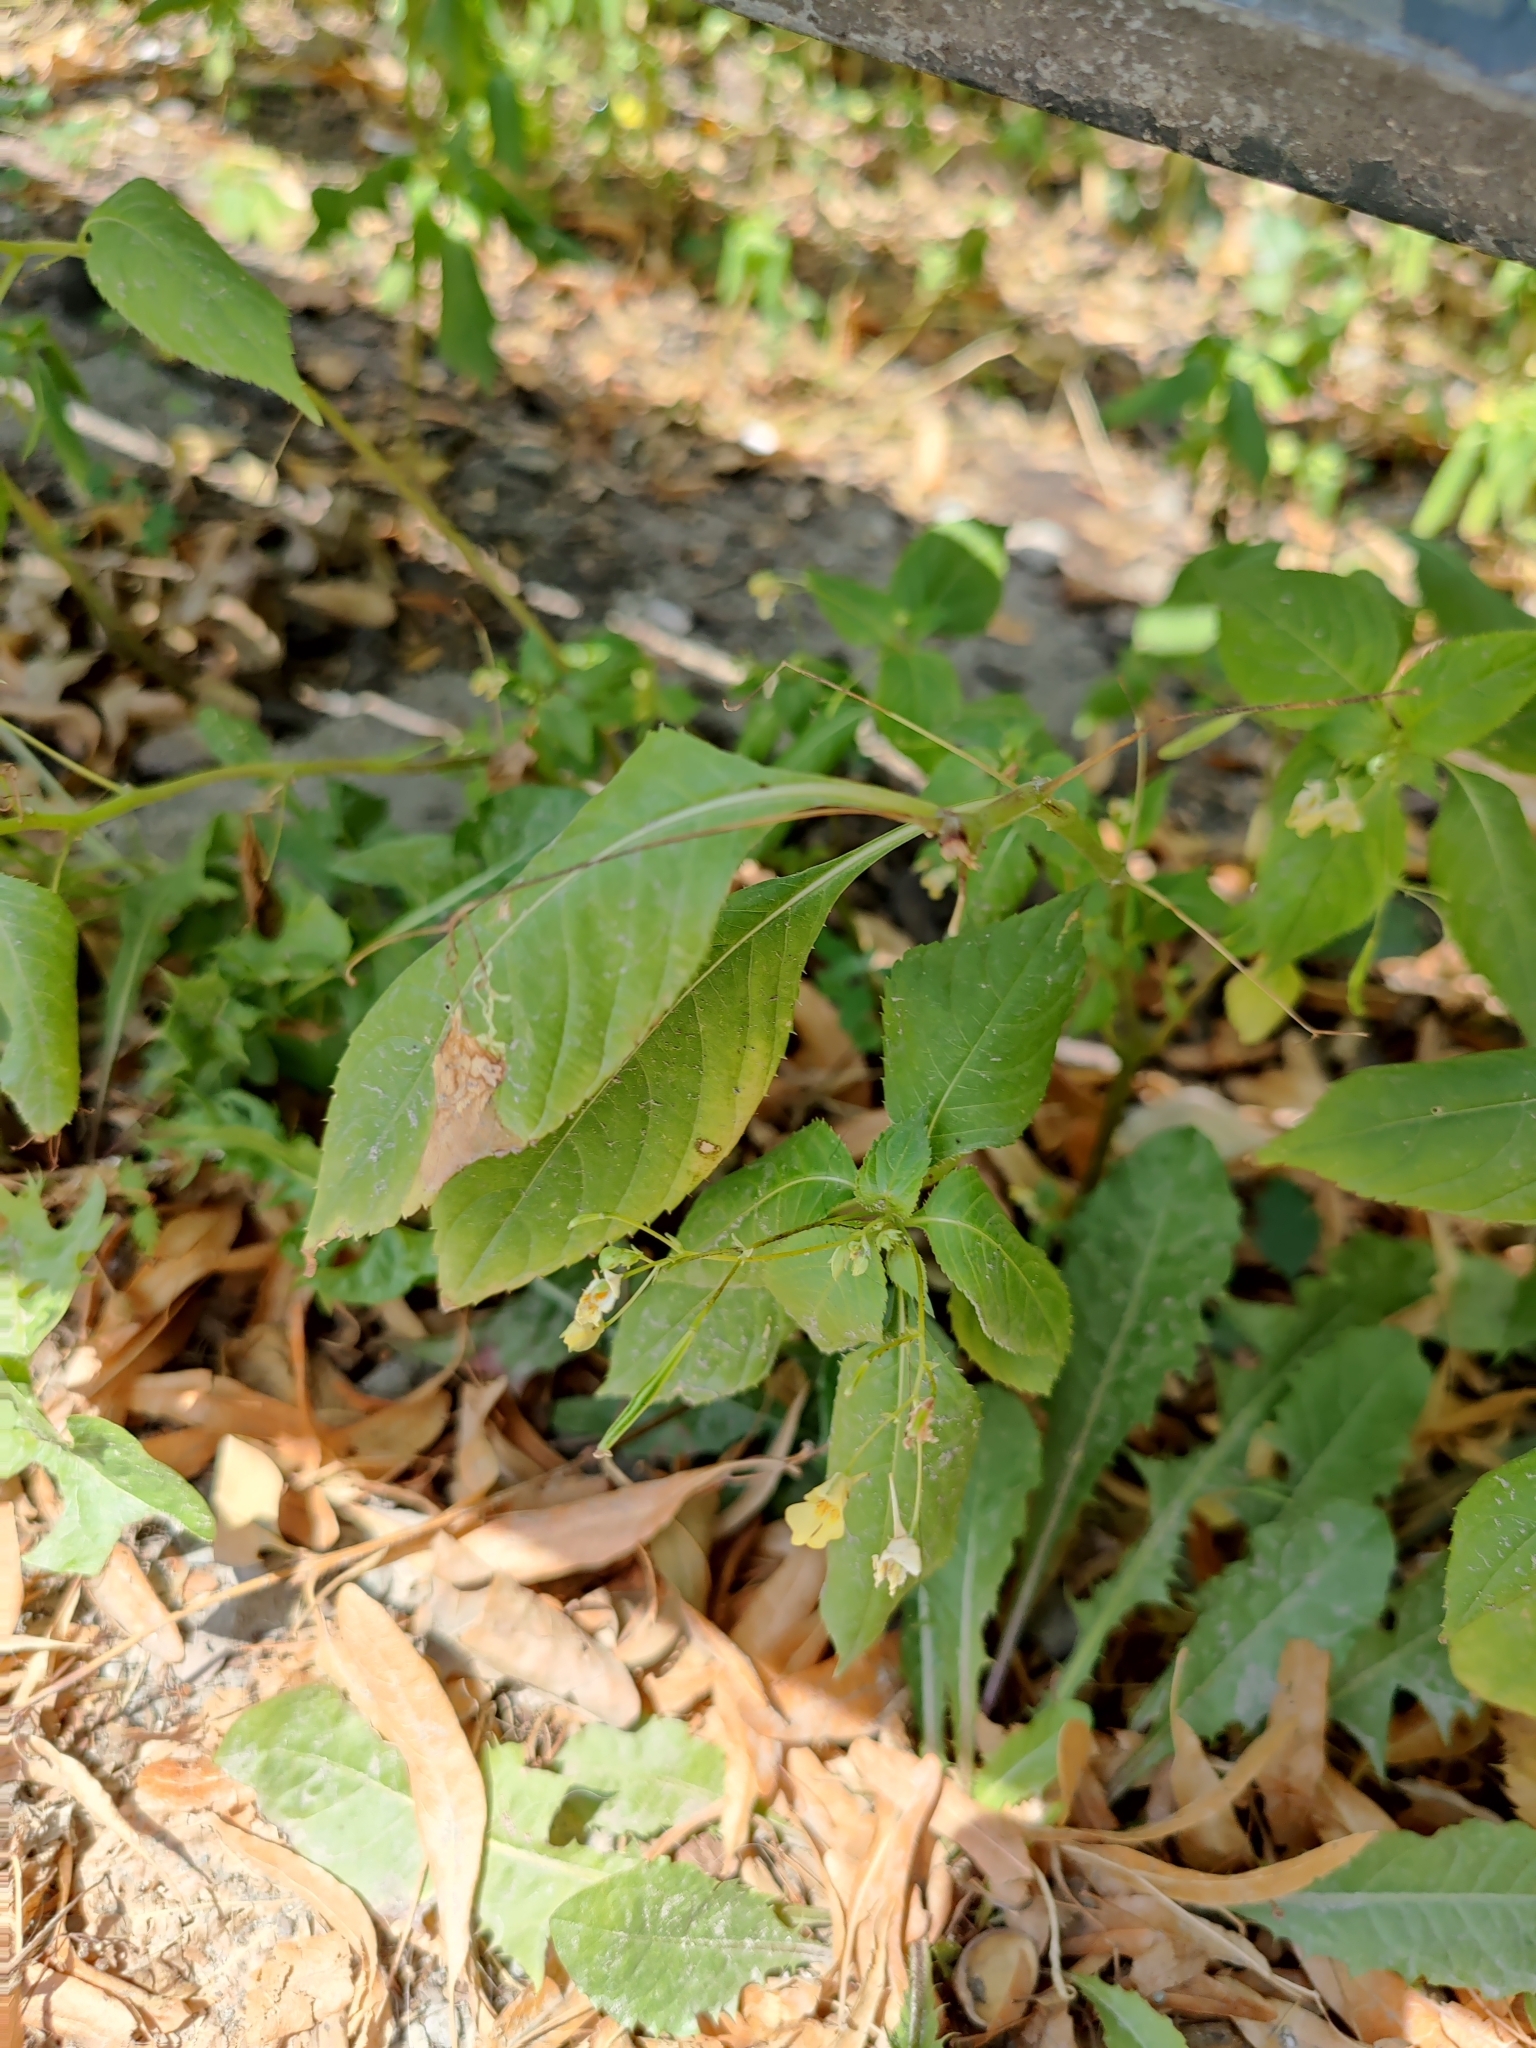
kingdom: Plantae
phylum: Tracheophyta
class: Magnoliopsida
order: Ericales
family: Balsaminaceae
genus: Impatiens
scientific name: Impatiens parviflora
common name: Small balsam
